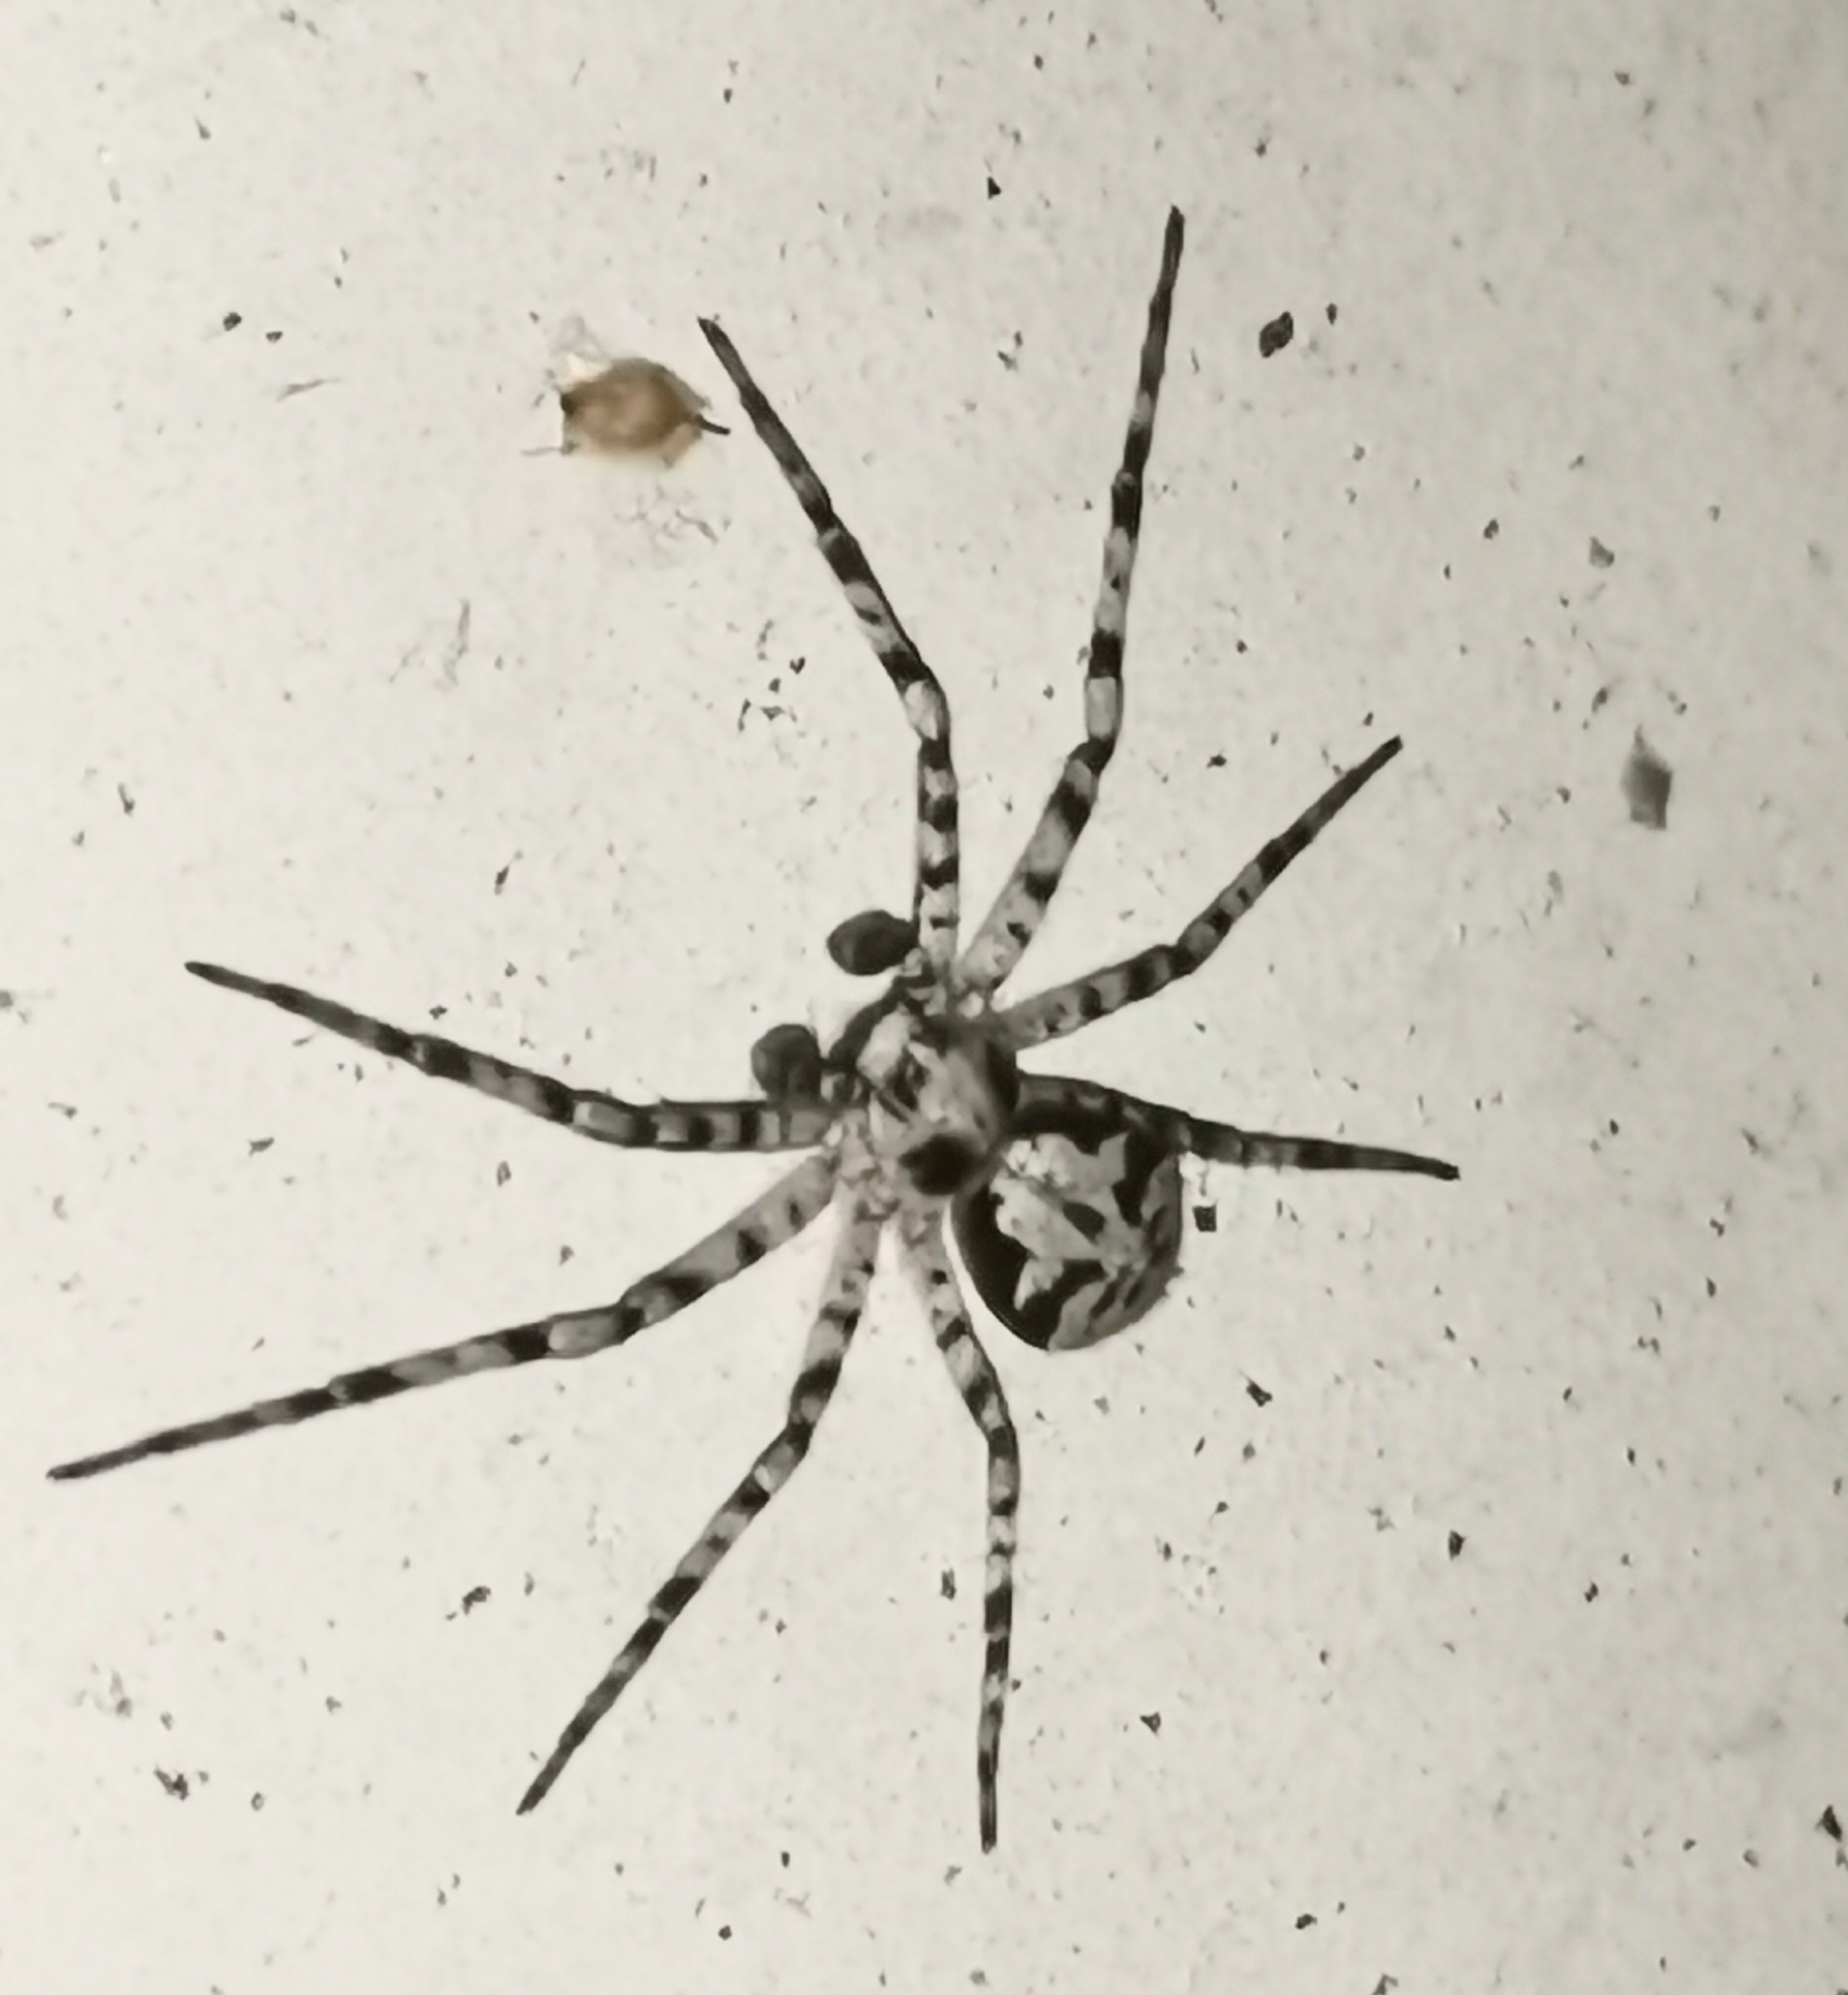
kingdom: Animalia
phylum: Arthropoda
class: Arachnida
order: Araneae
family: Philodromidae
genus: Philodromus
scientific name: Philodromus margaritatus
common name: Lichen running-spider
